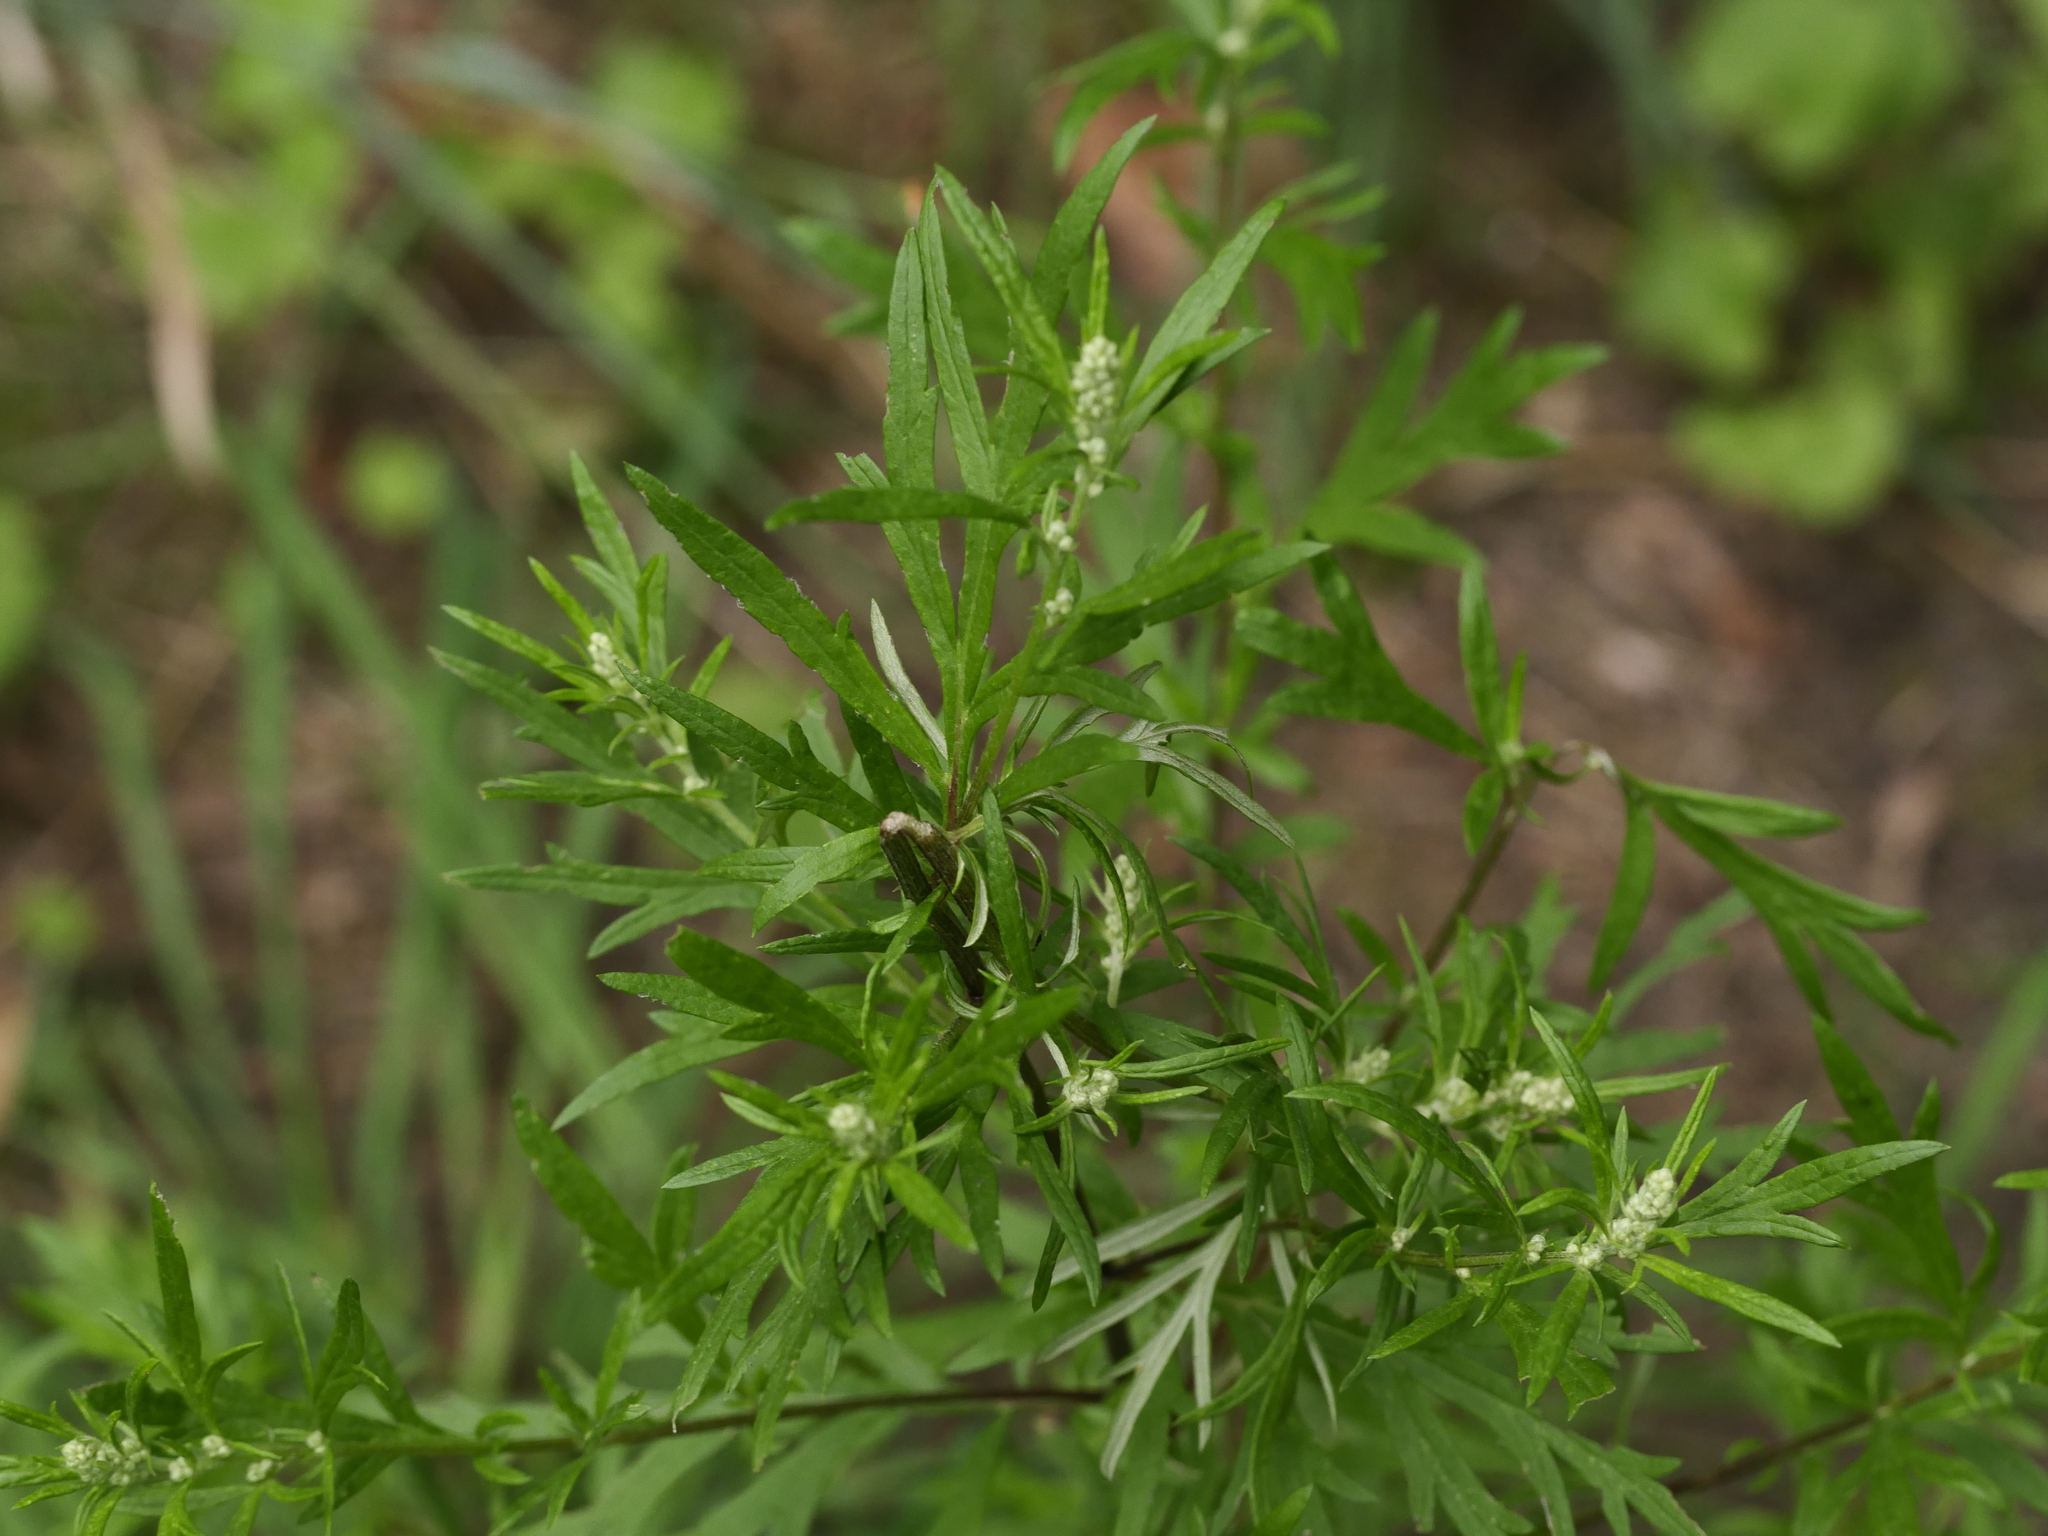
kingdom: Plantae
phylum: Tracheophyta
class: Magnoliopsida
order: Asterales
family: Asteraceae
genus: Artemisia
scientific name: Artemisia vulgaris
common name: Mugwort
